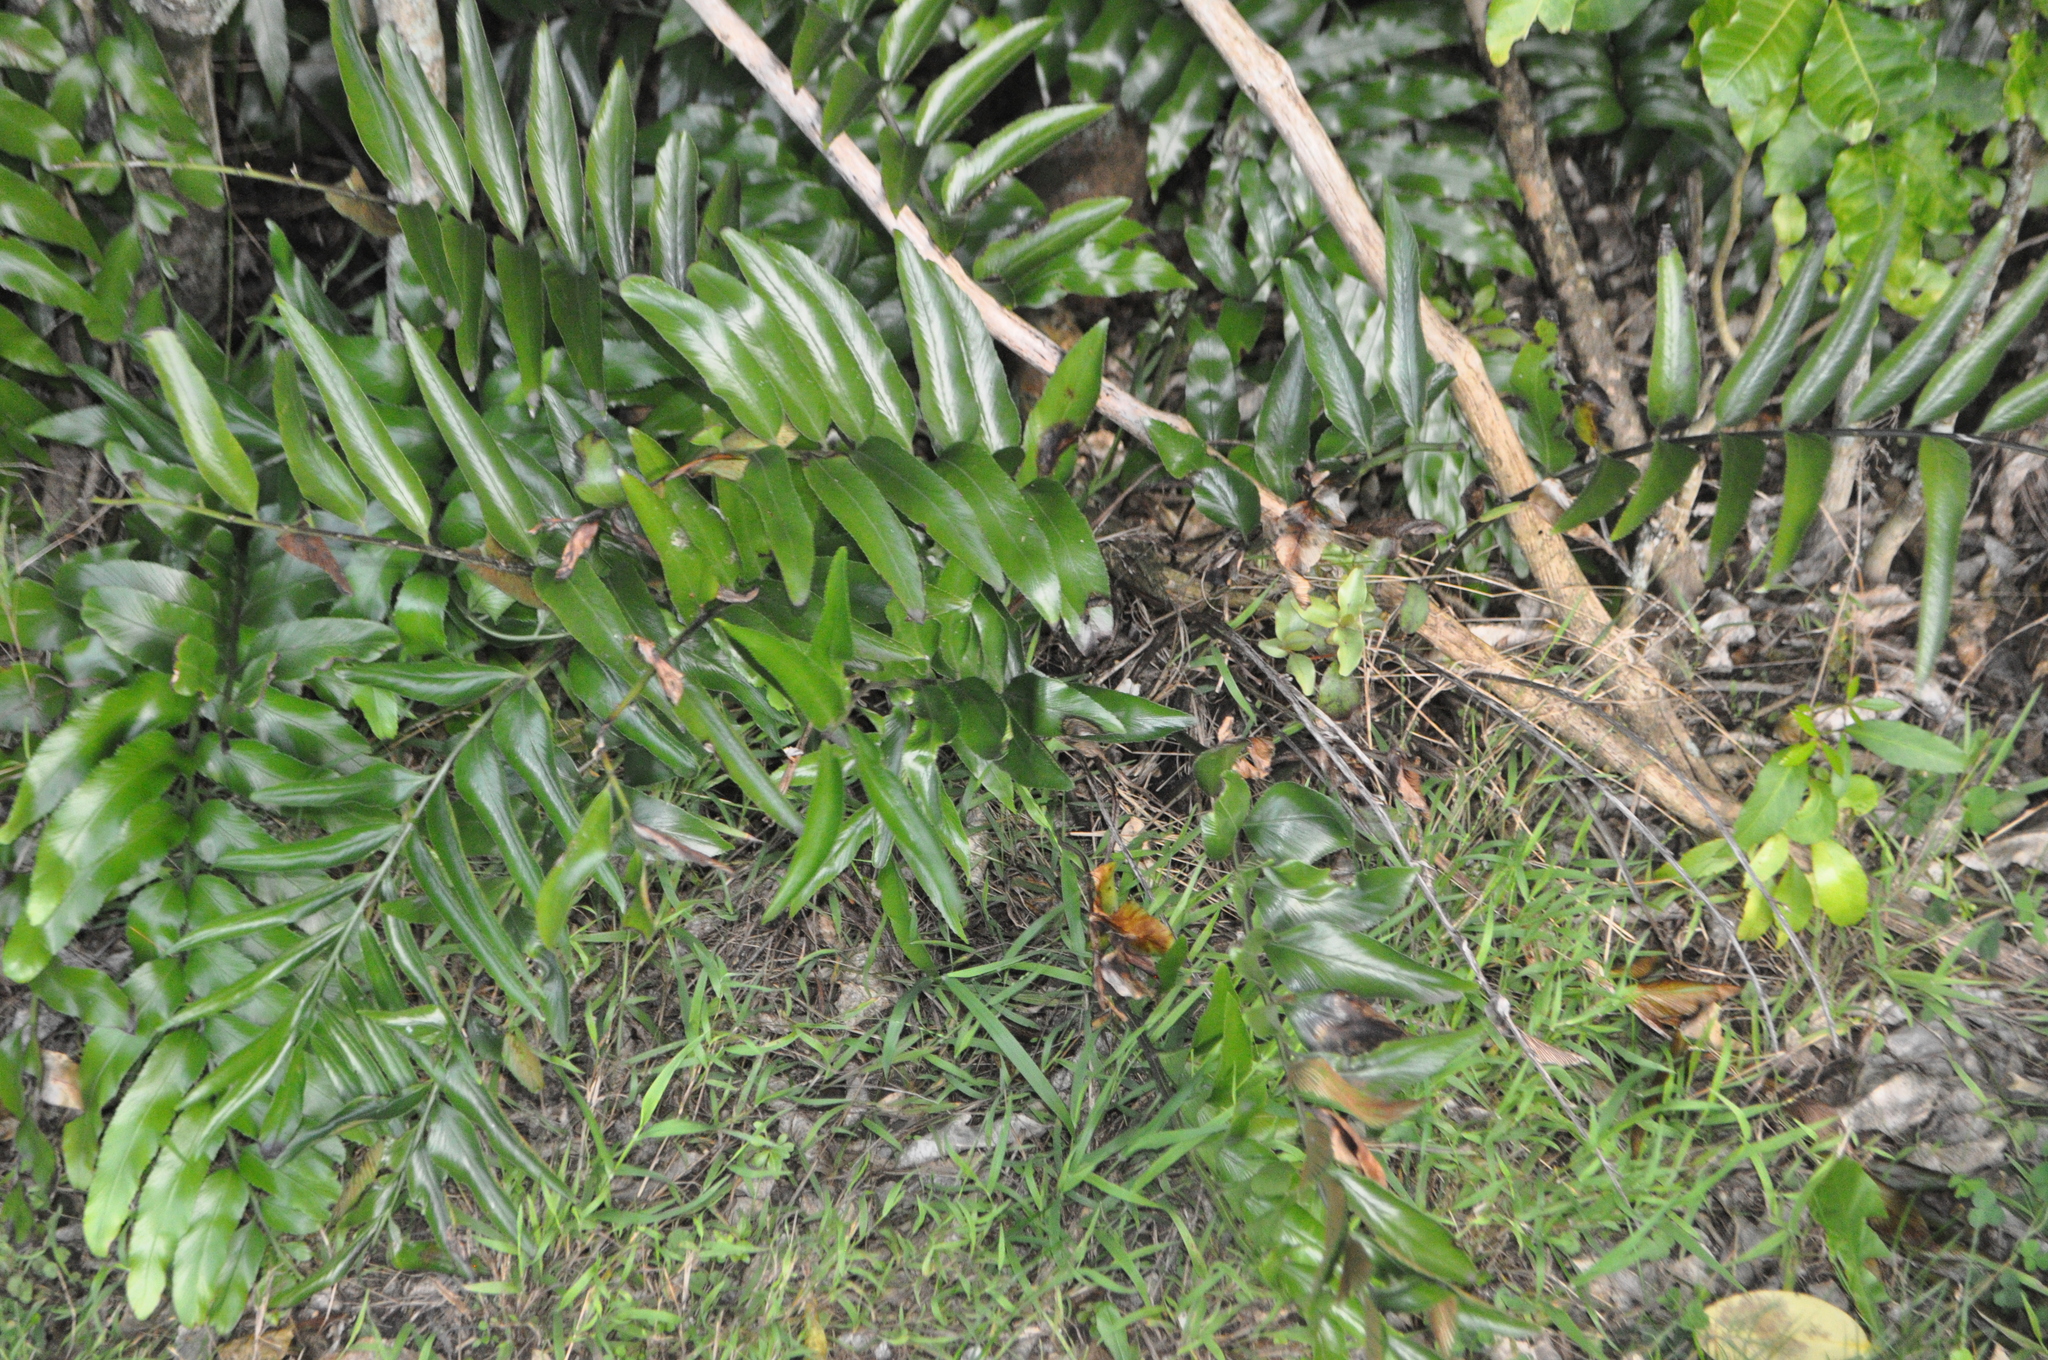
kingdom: Plantae
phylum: Tracheophyta
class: Polypodiopsida
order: Polypodiales
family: Aspleniaceae
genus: Asplenium
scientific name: Asplenium oblongifolium
